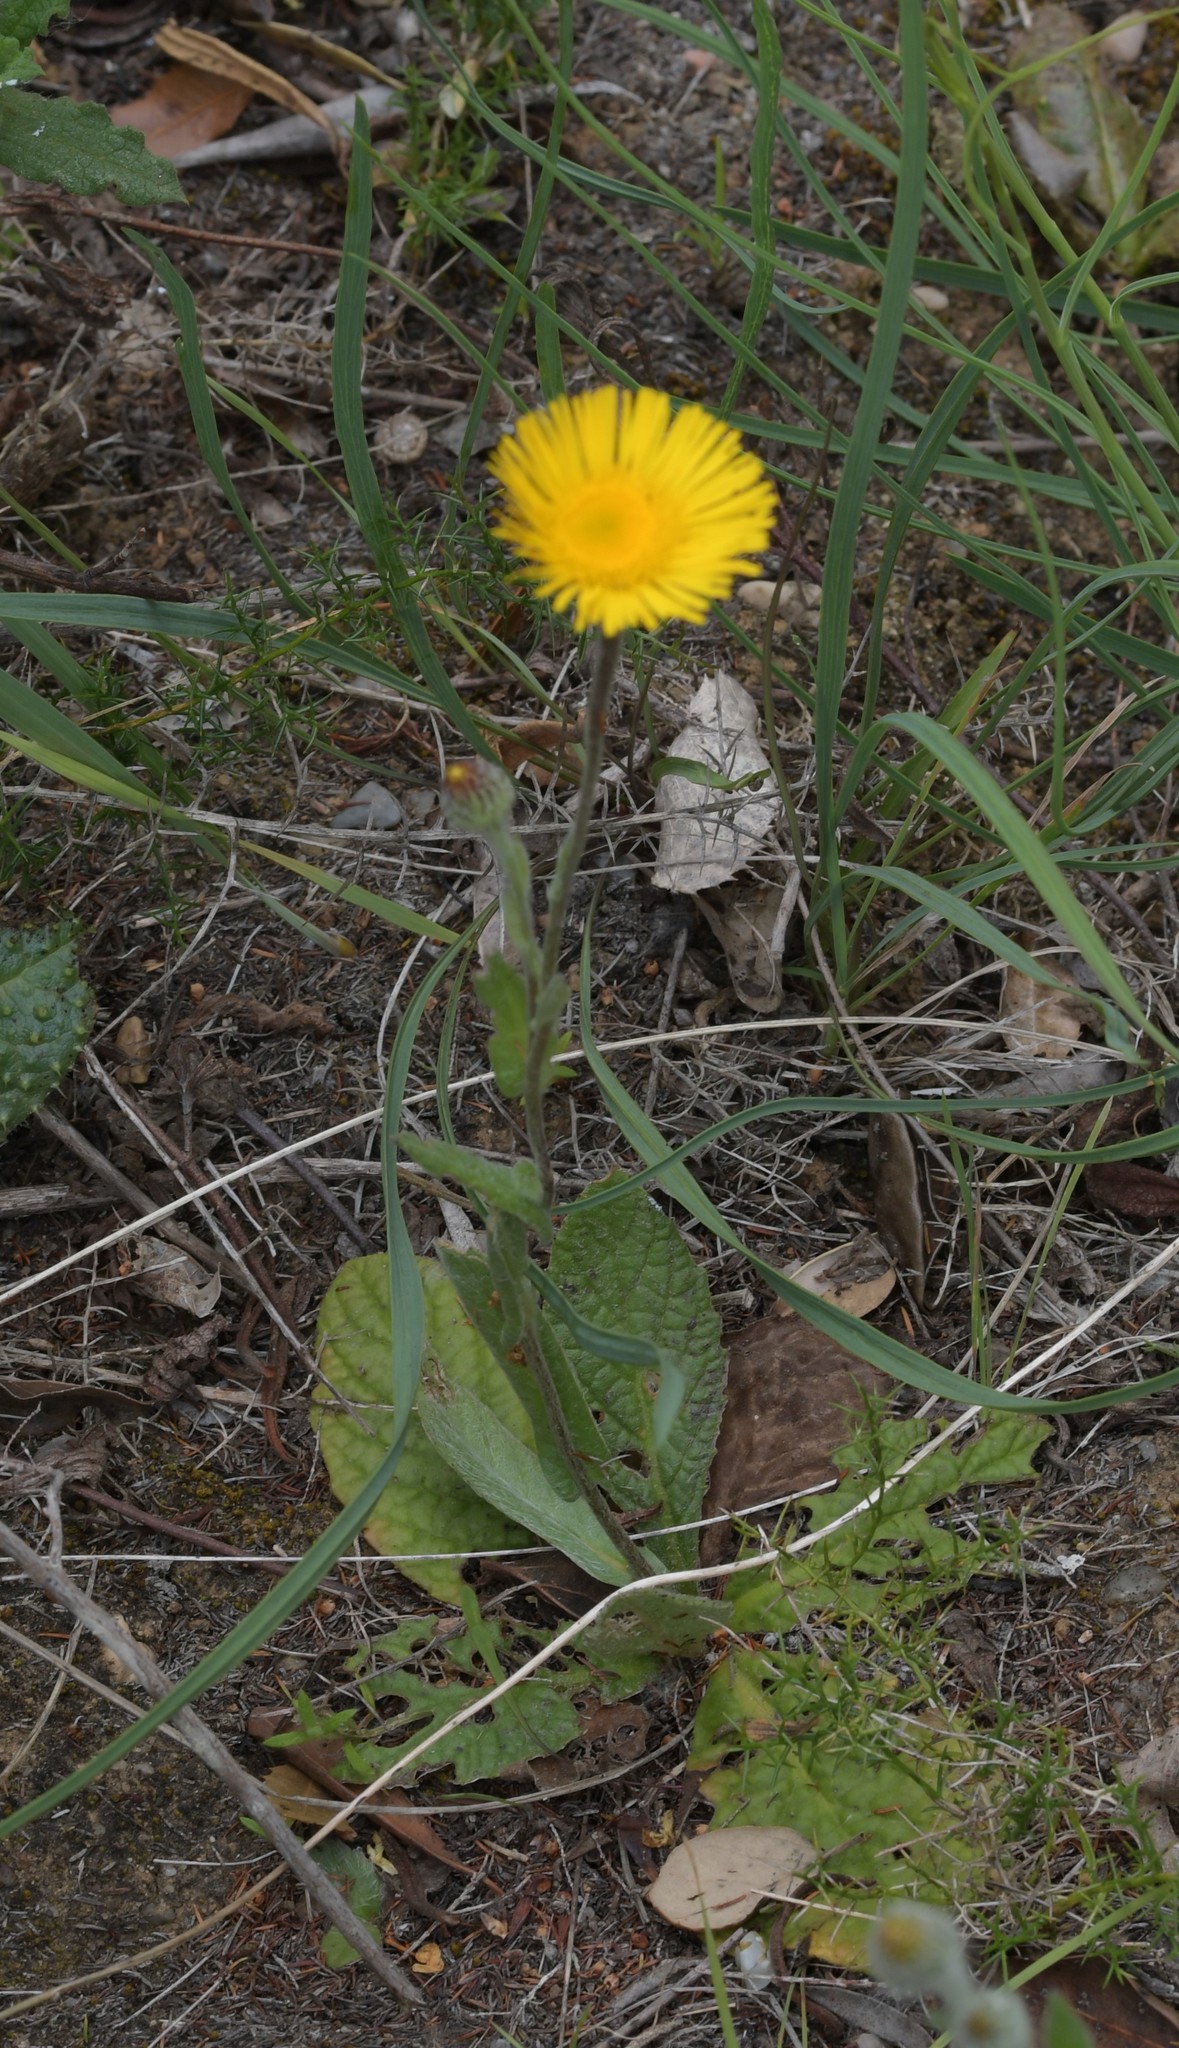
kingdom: Plantae
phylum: Tracheophyta
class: Magnoliopsida
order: Asterales
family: Asteraceae
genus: Pulicaria
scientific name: Pulicaria odora
